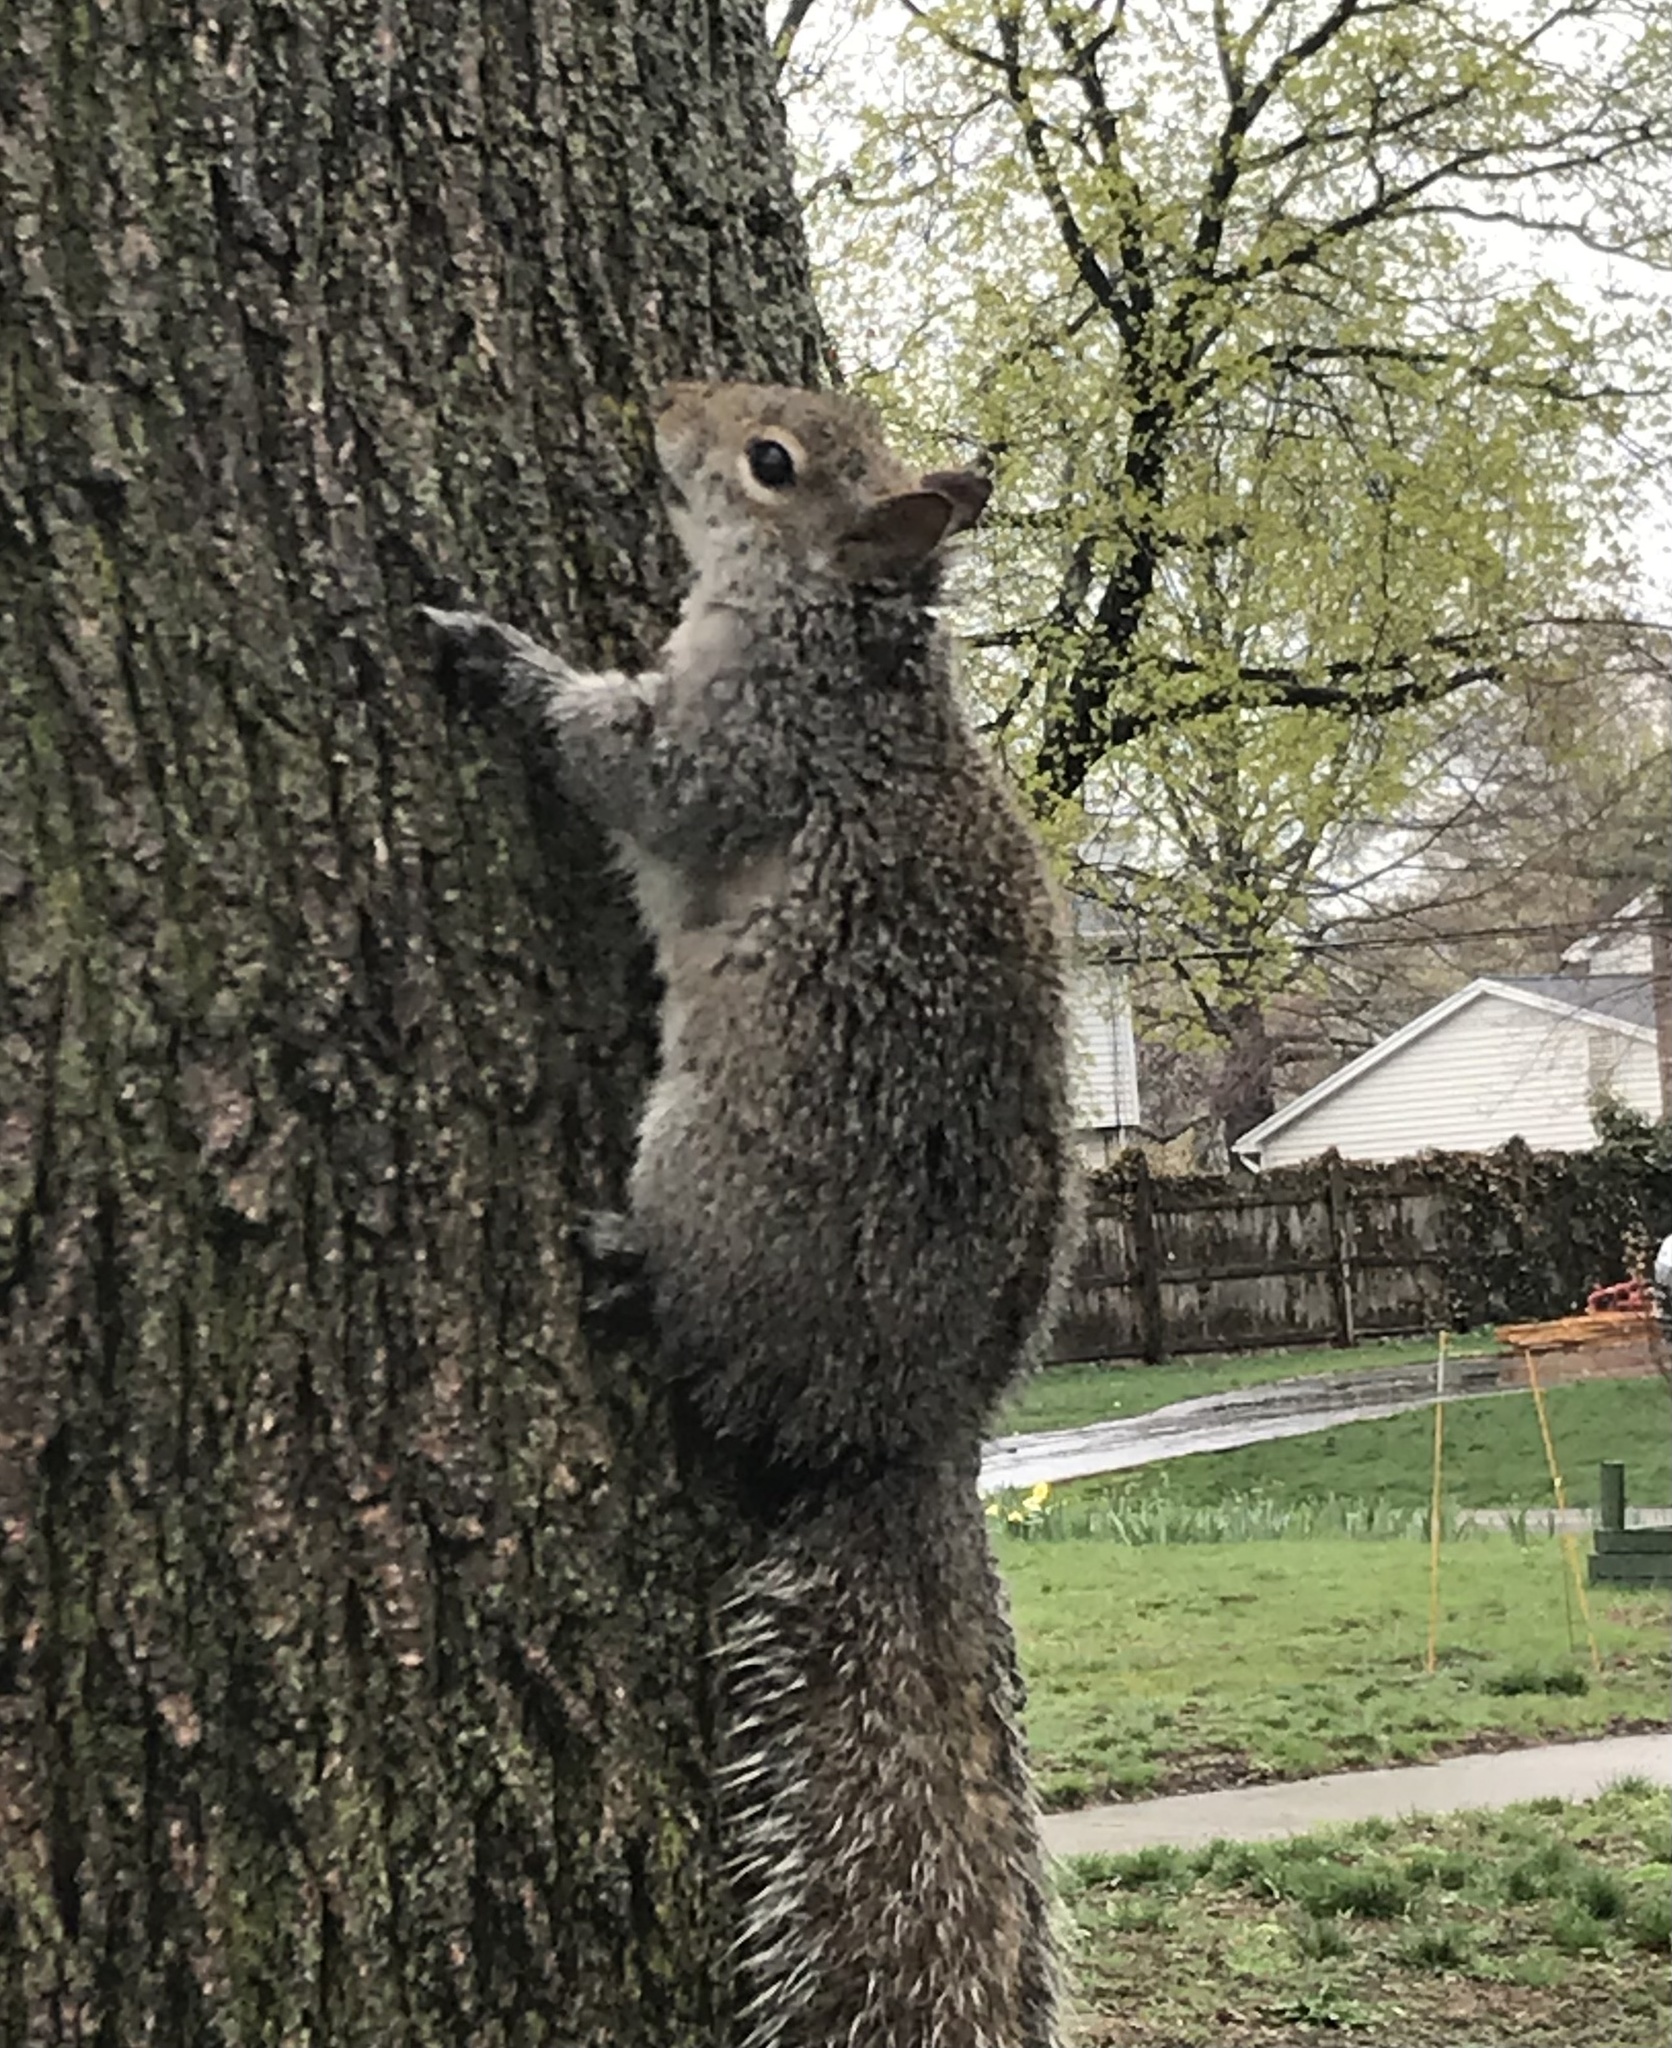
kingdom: Animalia
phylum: Chordata
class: Mammalia
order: Rodentia
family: Sciuridae
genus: Sciurus
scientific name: Sciurus carolinensis
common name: Eastern gray squirrel
